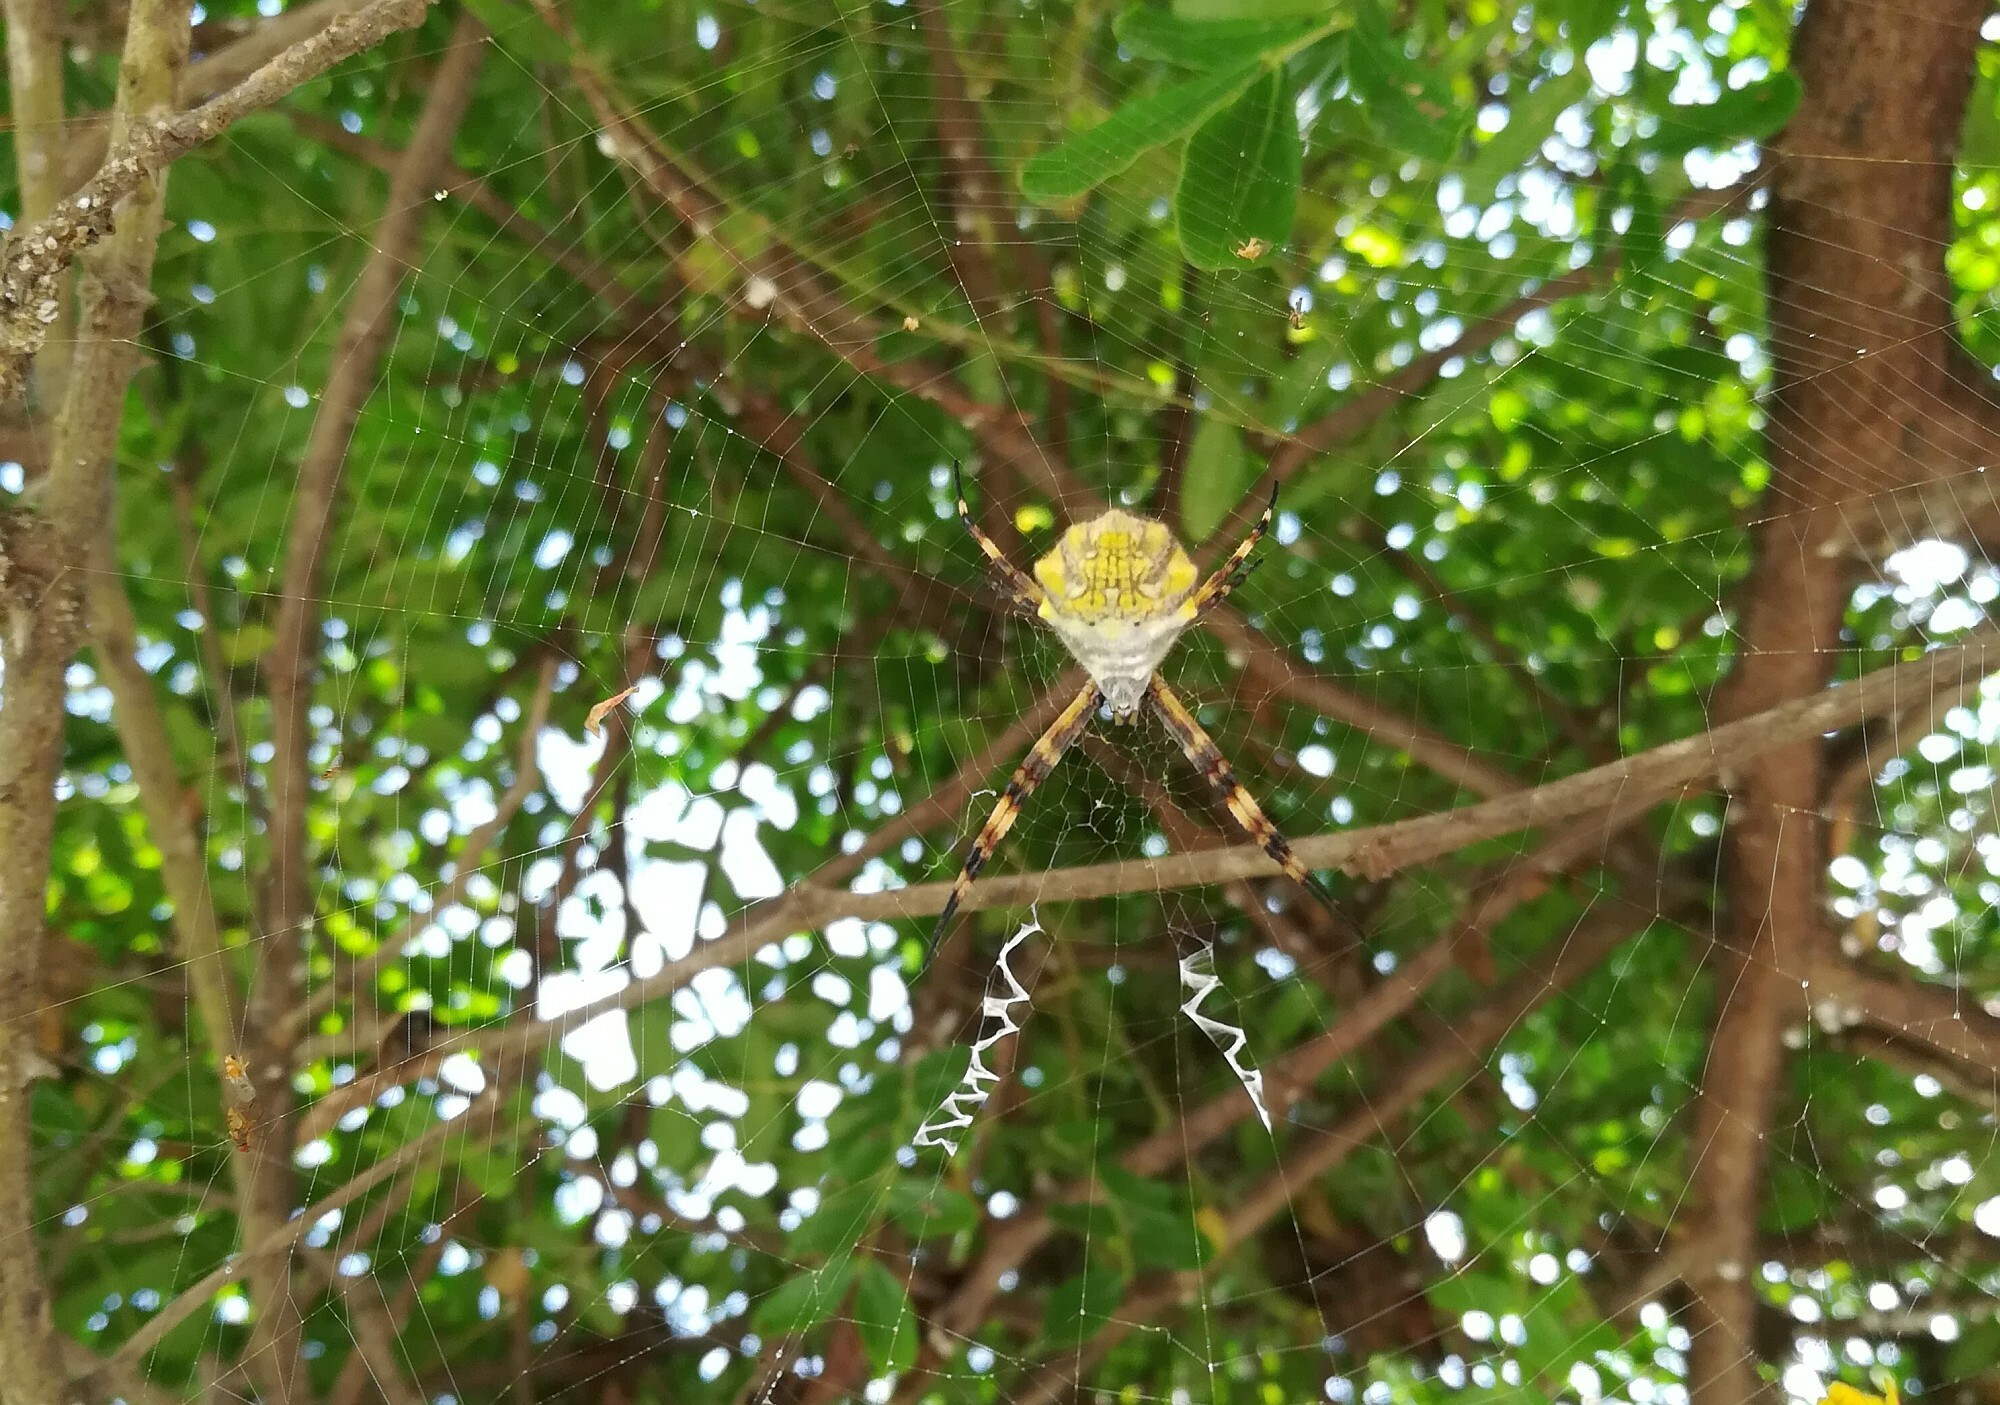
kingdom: Animalia
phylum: Arthropoda
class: Arachnida
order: Araneae
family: Araneidae
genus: Argiope
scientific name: Argiope argentata
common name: Orb weavers
